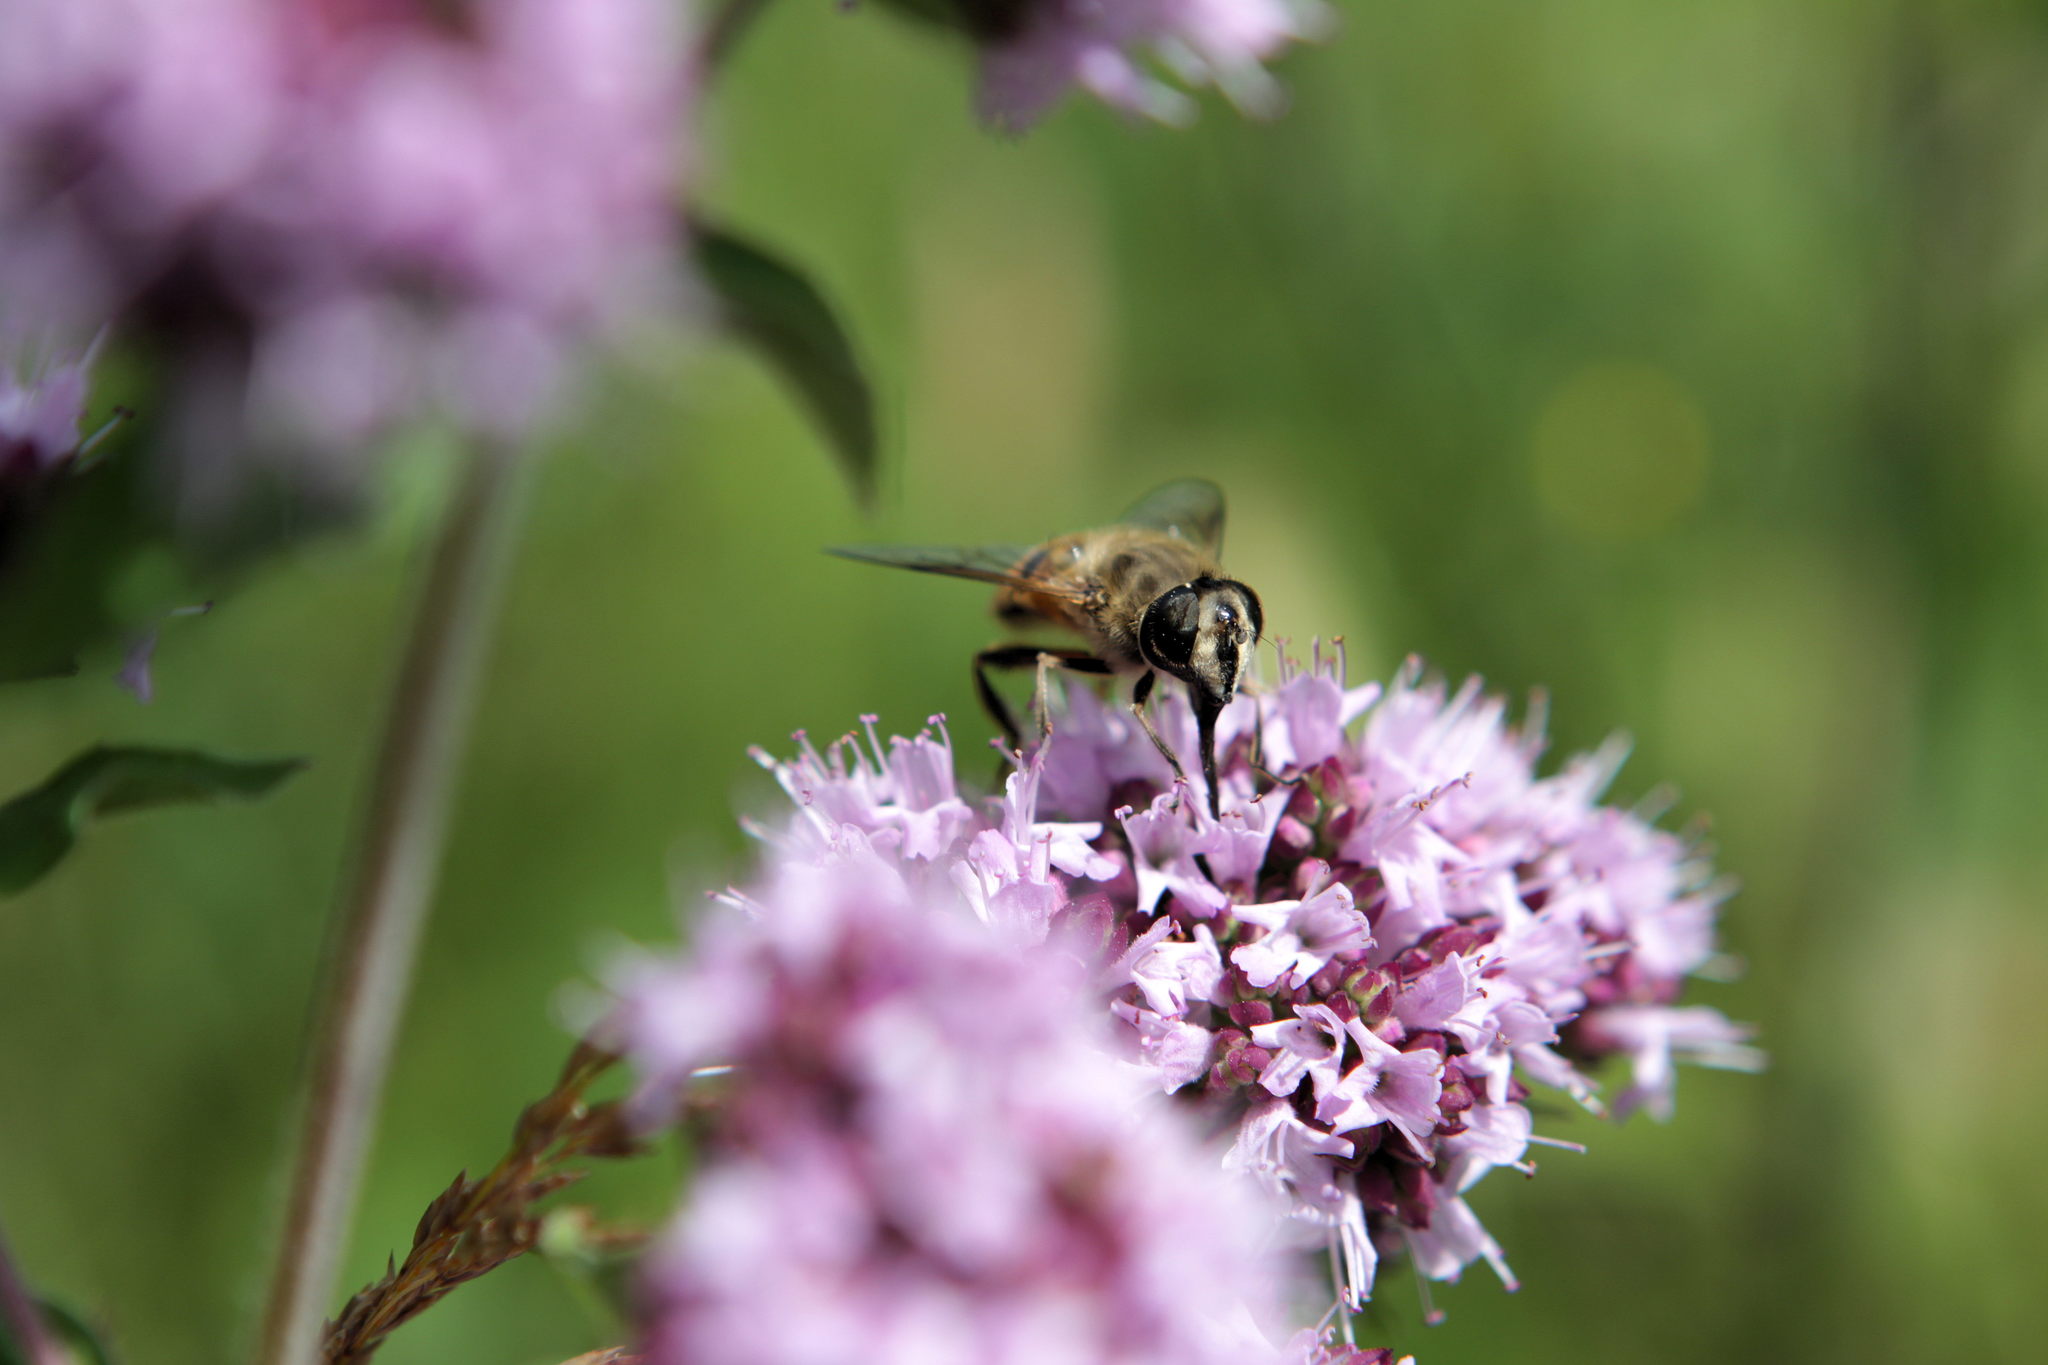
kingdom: Animalia
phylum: Arthropoda
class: Insecta
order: Diptera
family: Syrphidae
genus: Eristalis
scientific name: Eristalis tenax
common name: Drone fly
